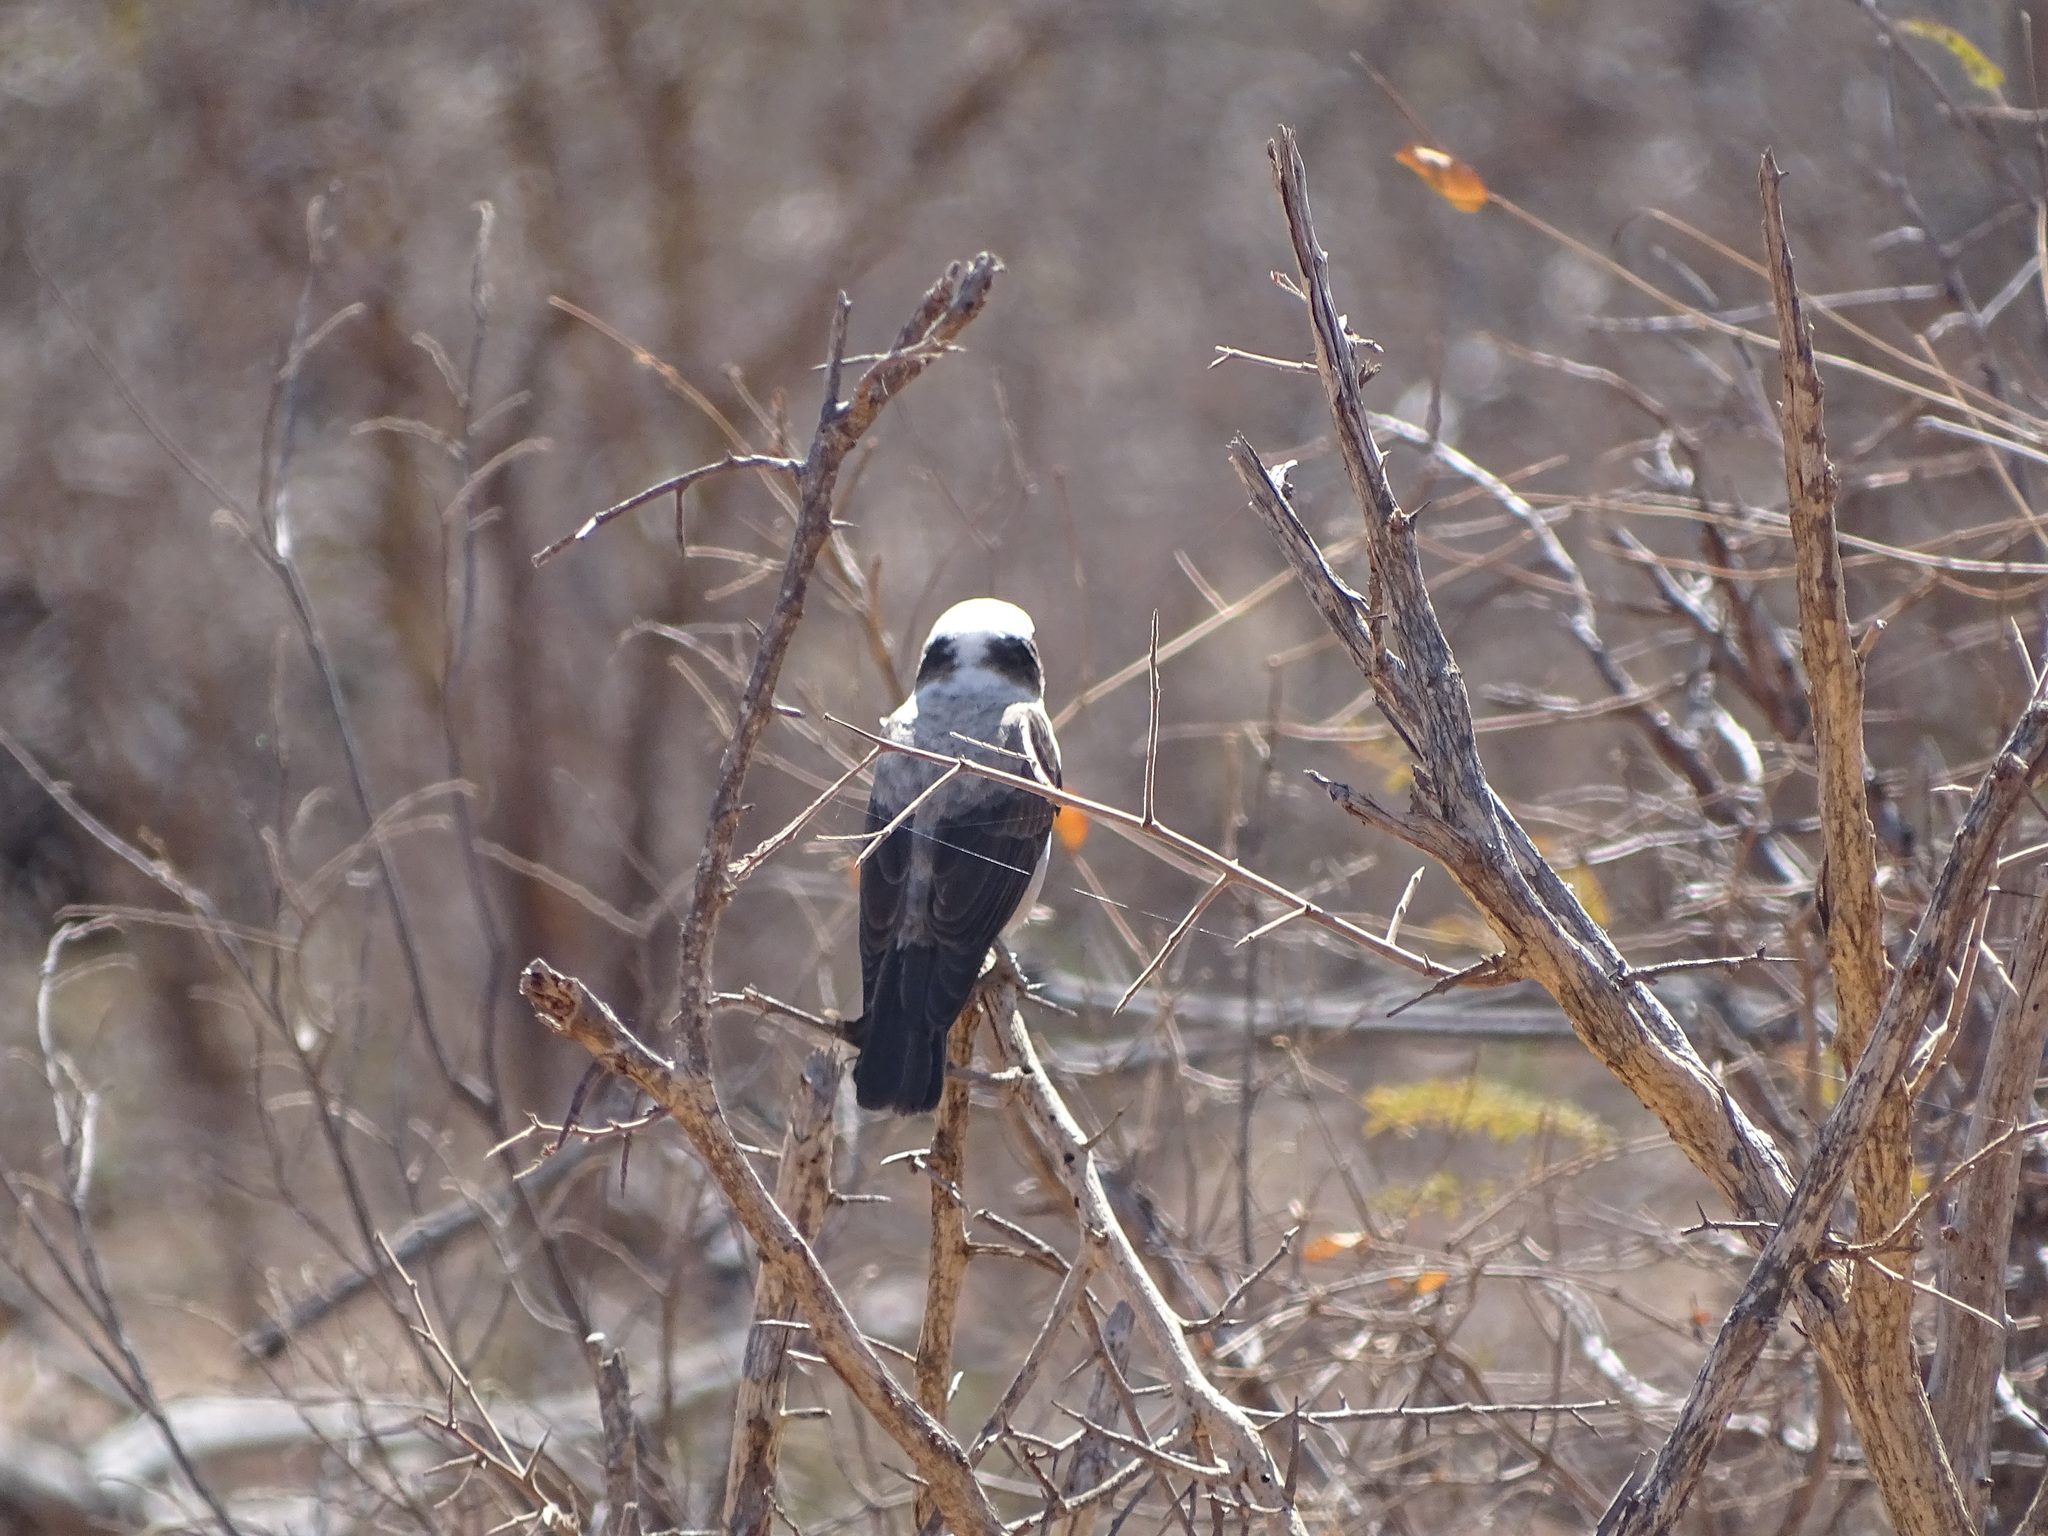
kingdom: Animalia
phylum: Chordata
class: Aves
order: Passeriformes
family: Laniidae
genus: Eurocephalus
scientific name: Eurocephalus anguitimens
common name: Southern white-crowned shrike
